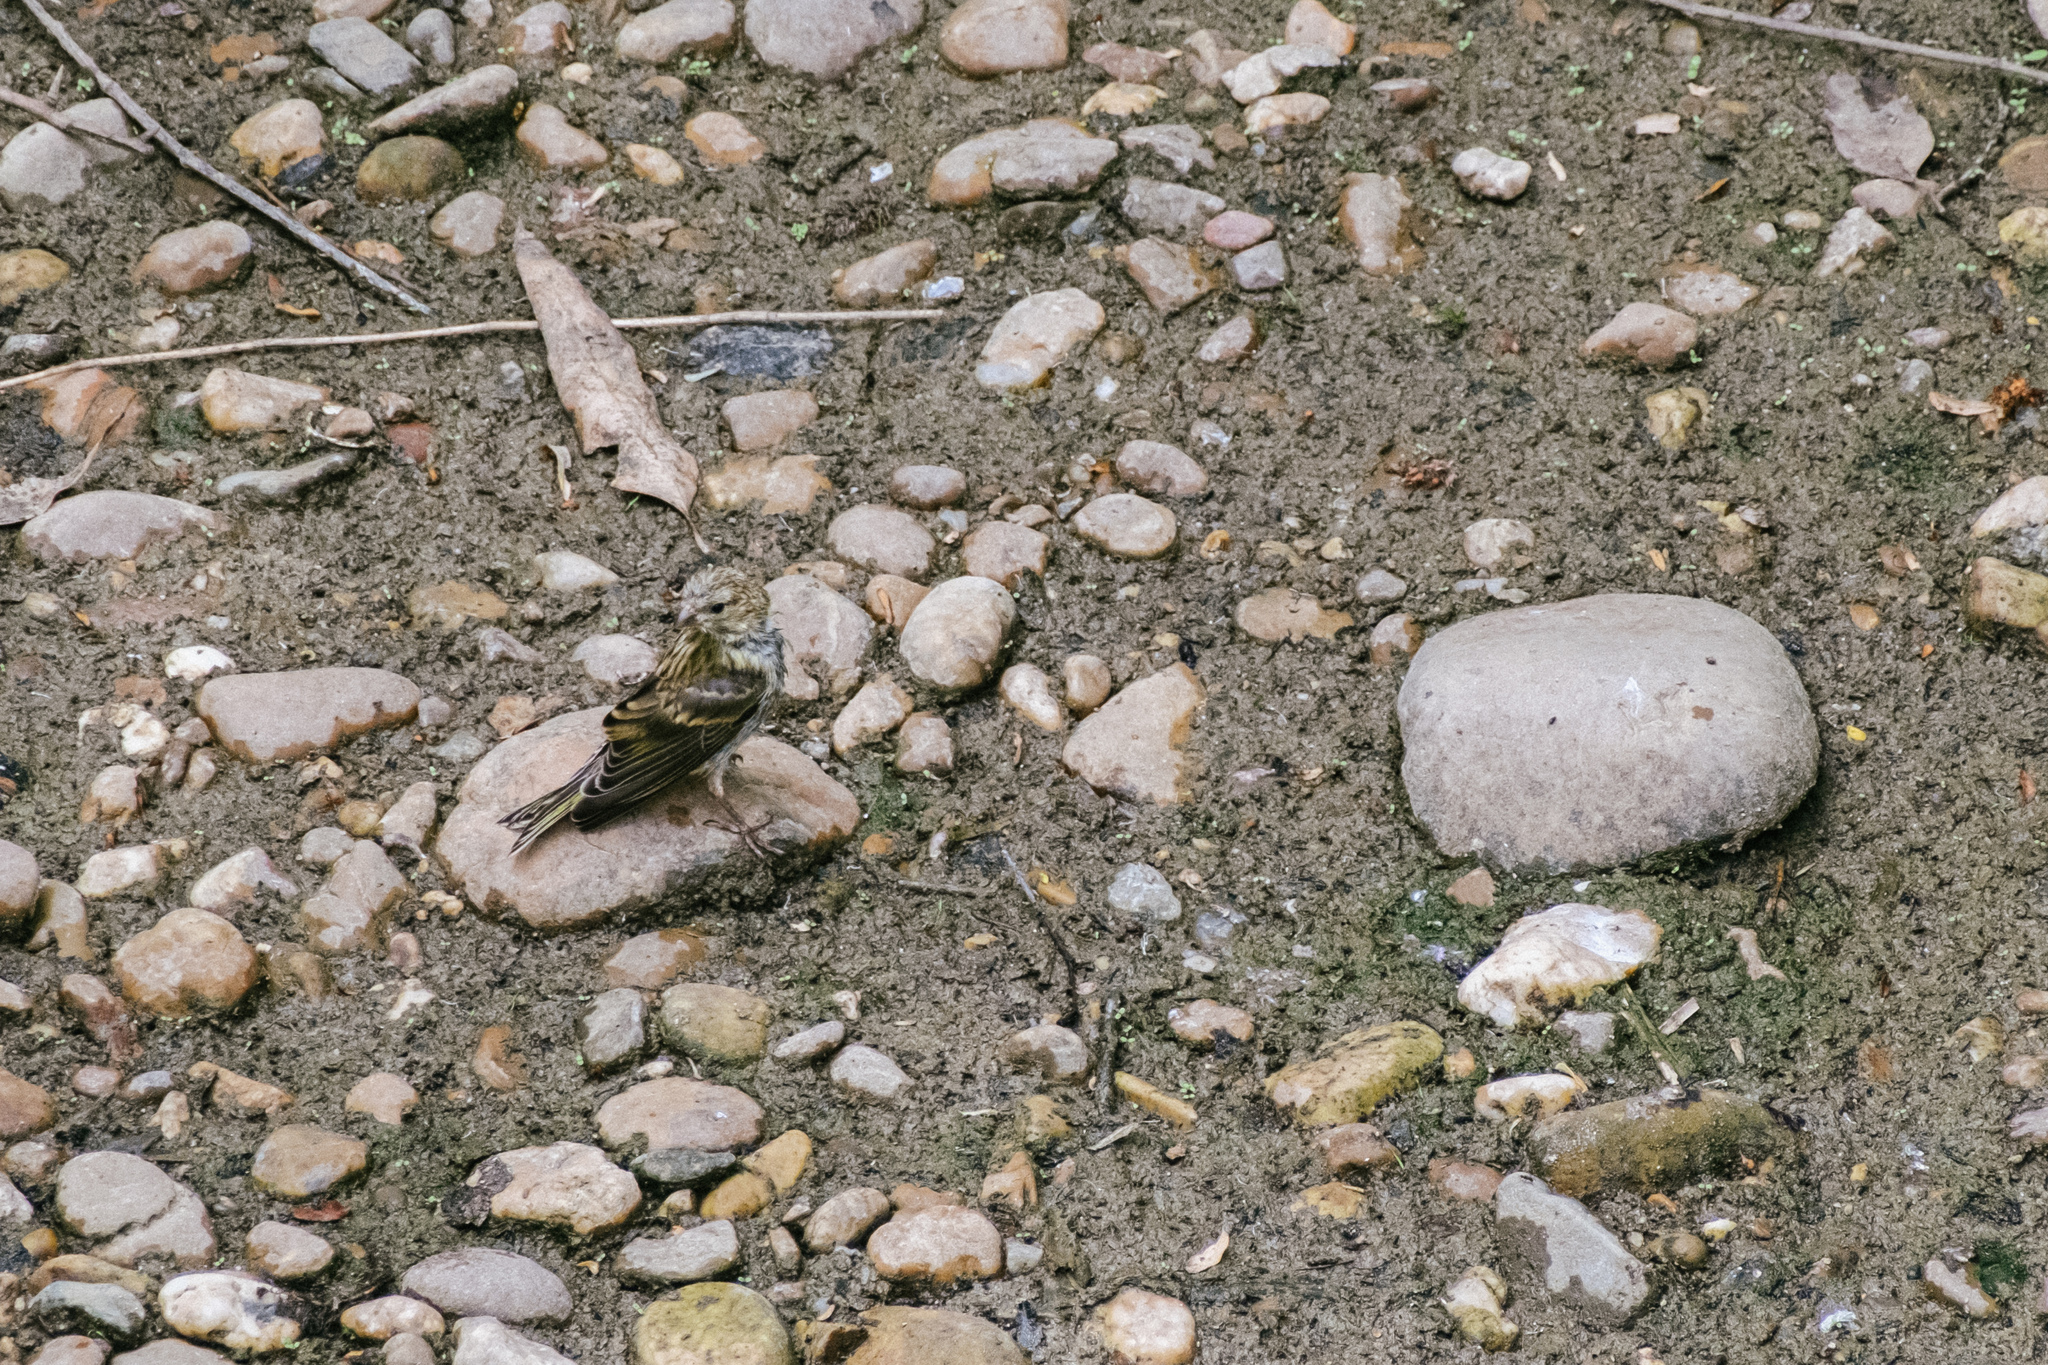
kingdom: Animalia
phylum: Chordata
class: Aves
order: Passeriformes
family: Fringillidae
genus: Serinus
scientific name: Serinus serinus
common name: European serin
